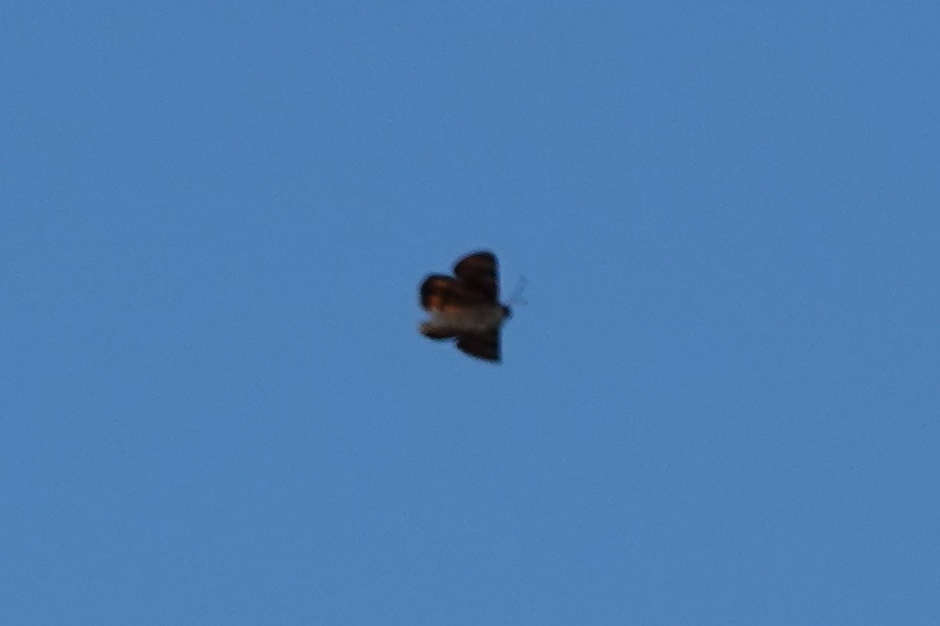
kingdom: Animalia
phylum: Arthropoda
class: Insecta
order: Lepidoptera
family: Geometridae
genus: Archiearis
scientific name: Archiearis parthenias
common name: Orange underwing
